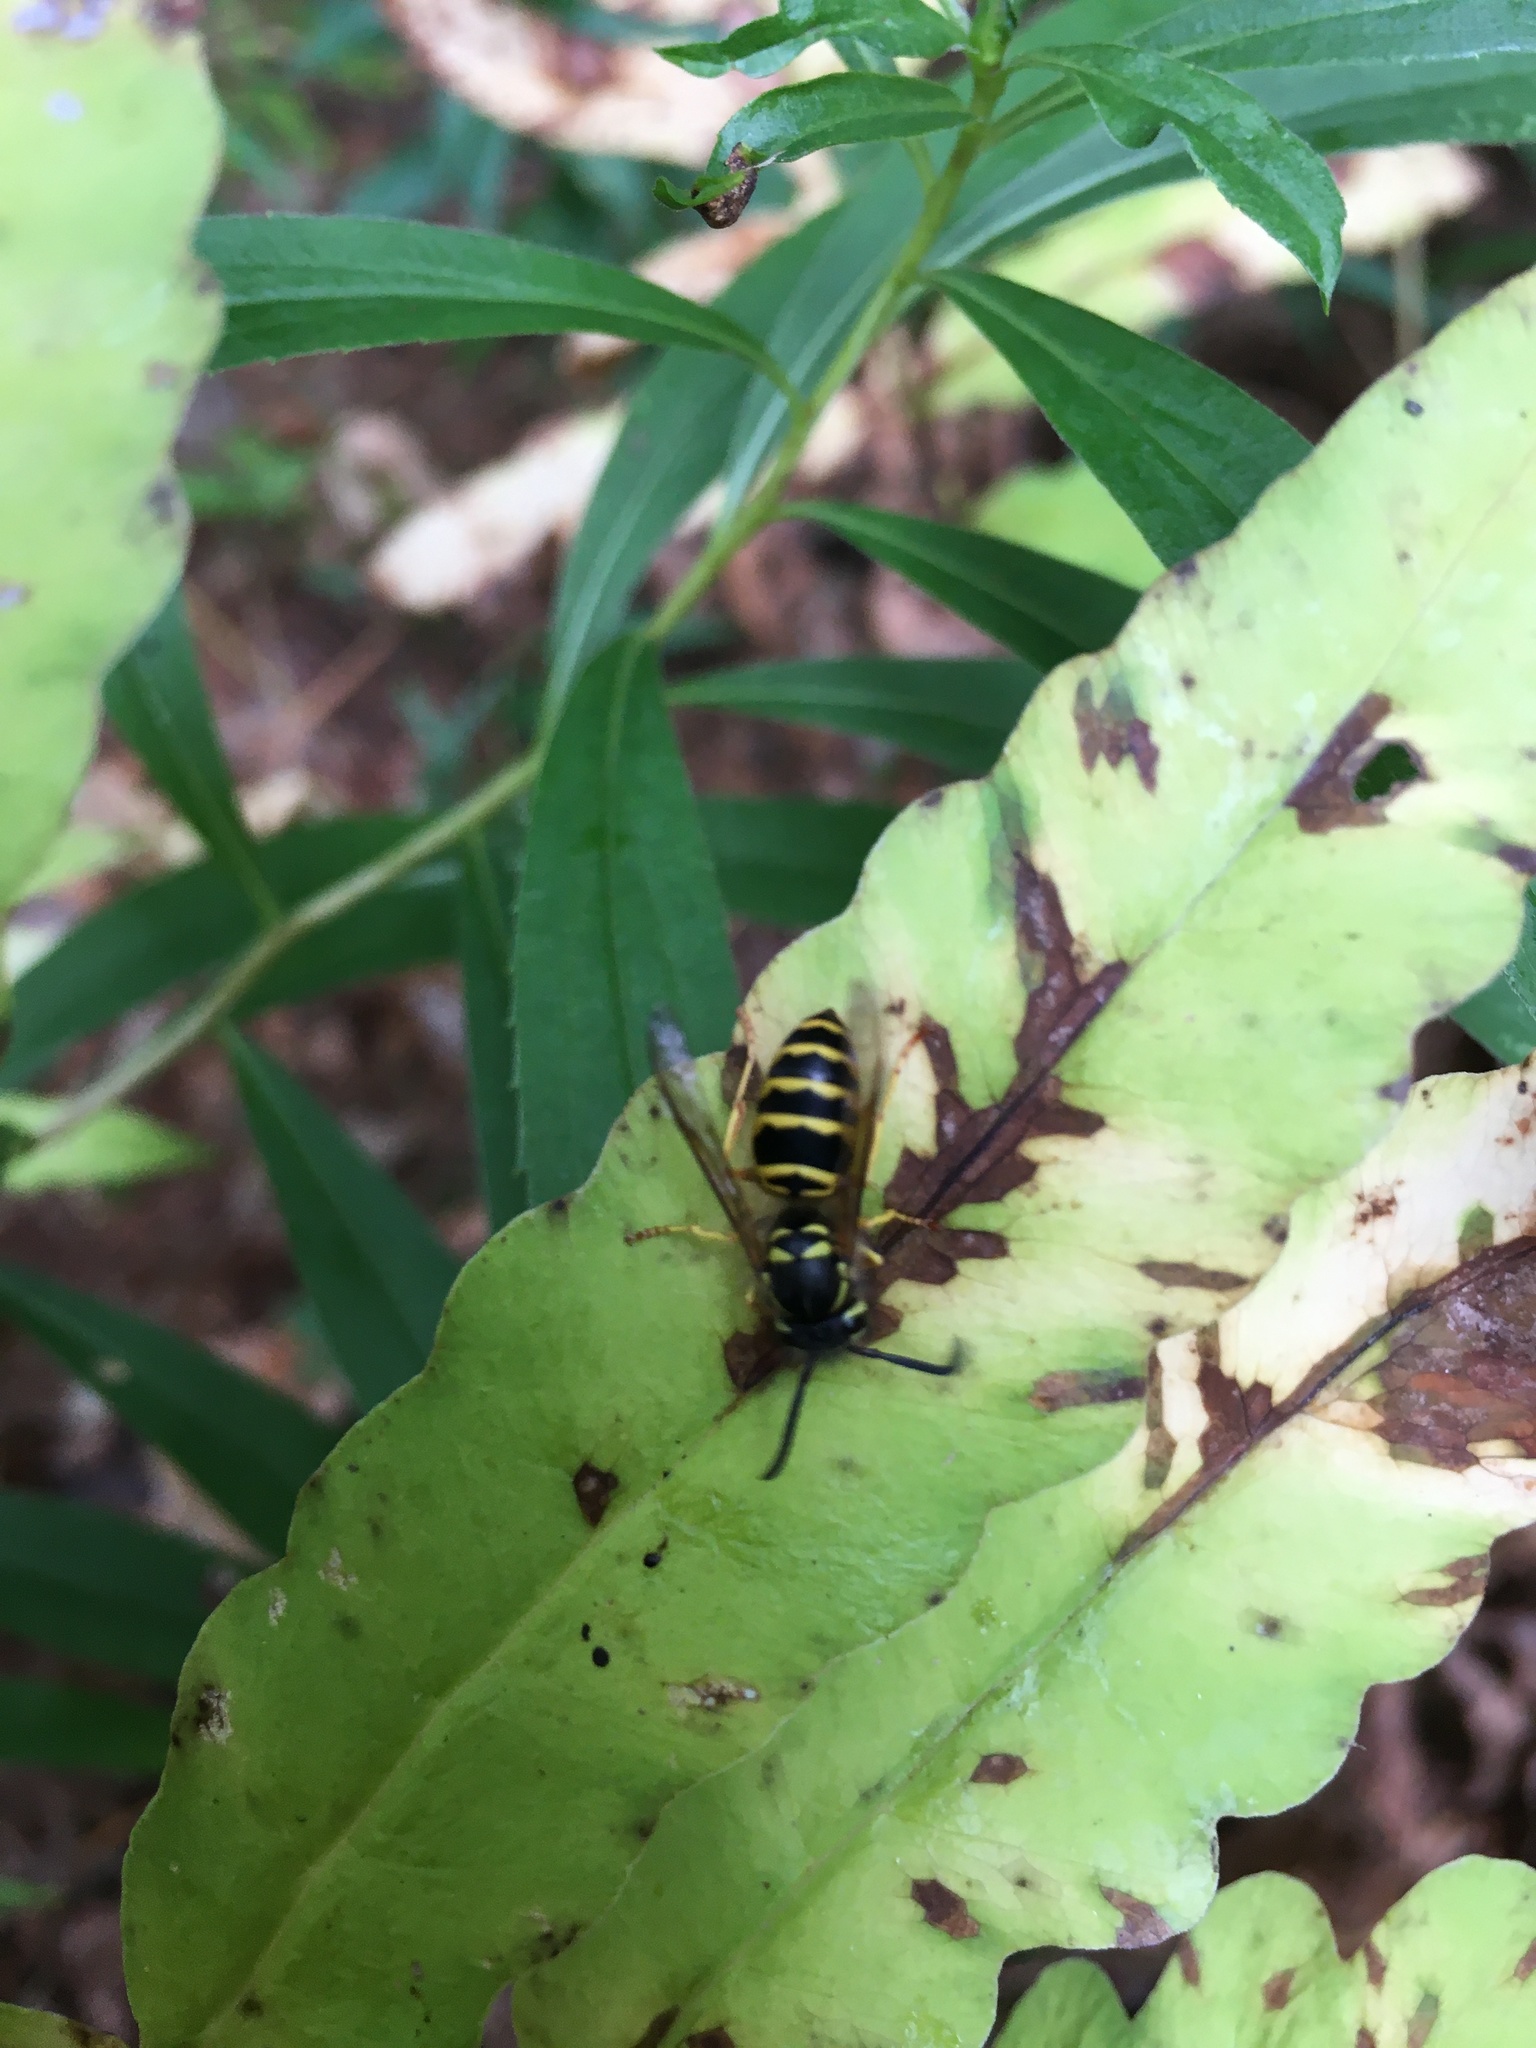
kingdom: Animalia
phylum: Arthropoda
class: Insecta
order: Hymenoptera
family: Vespidae
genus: Vespula
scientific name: Vespula maculifrons
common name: Eastern yellowjacket
